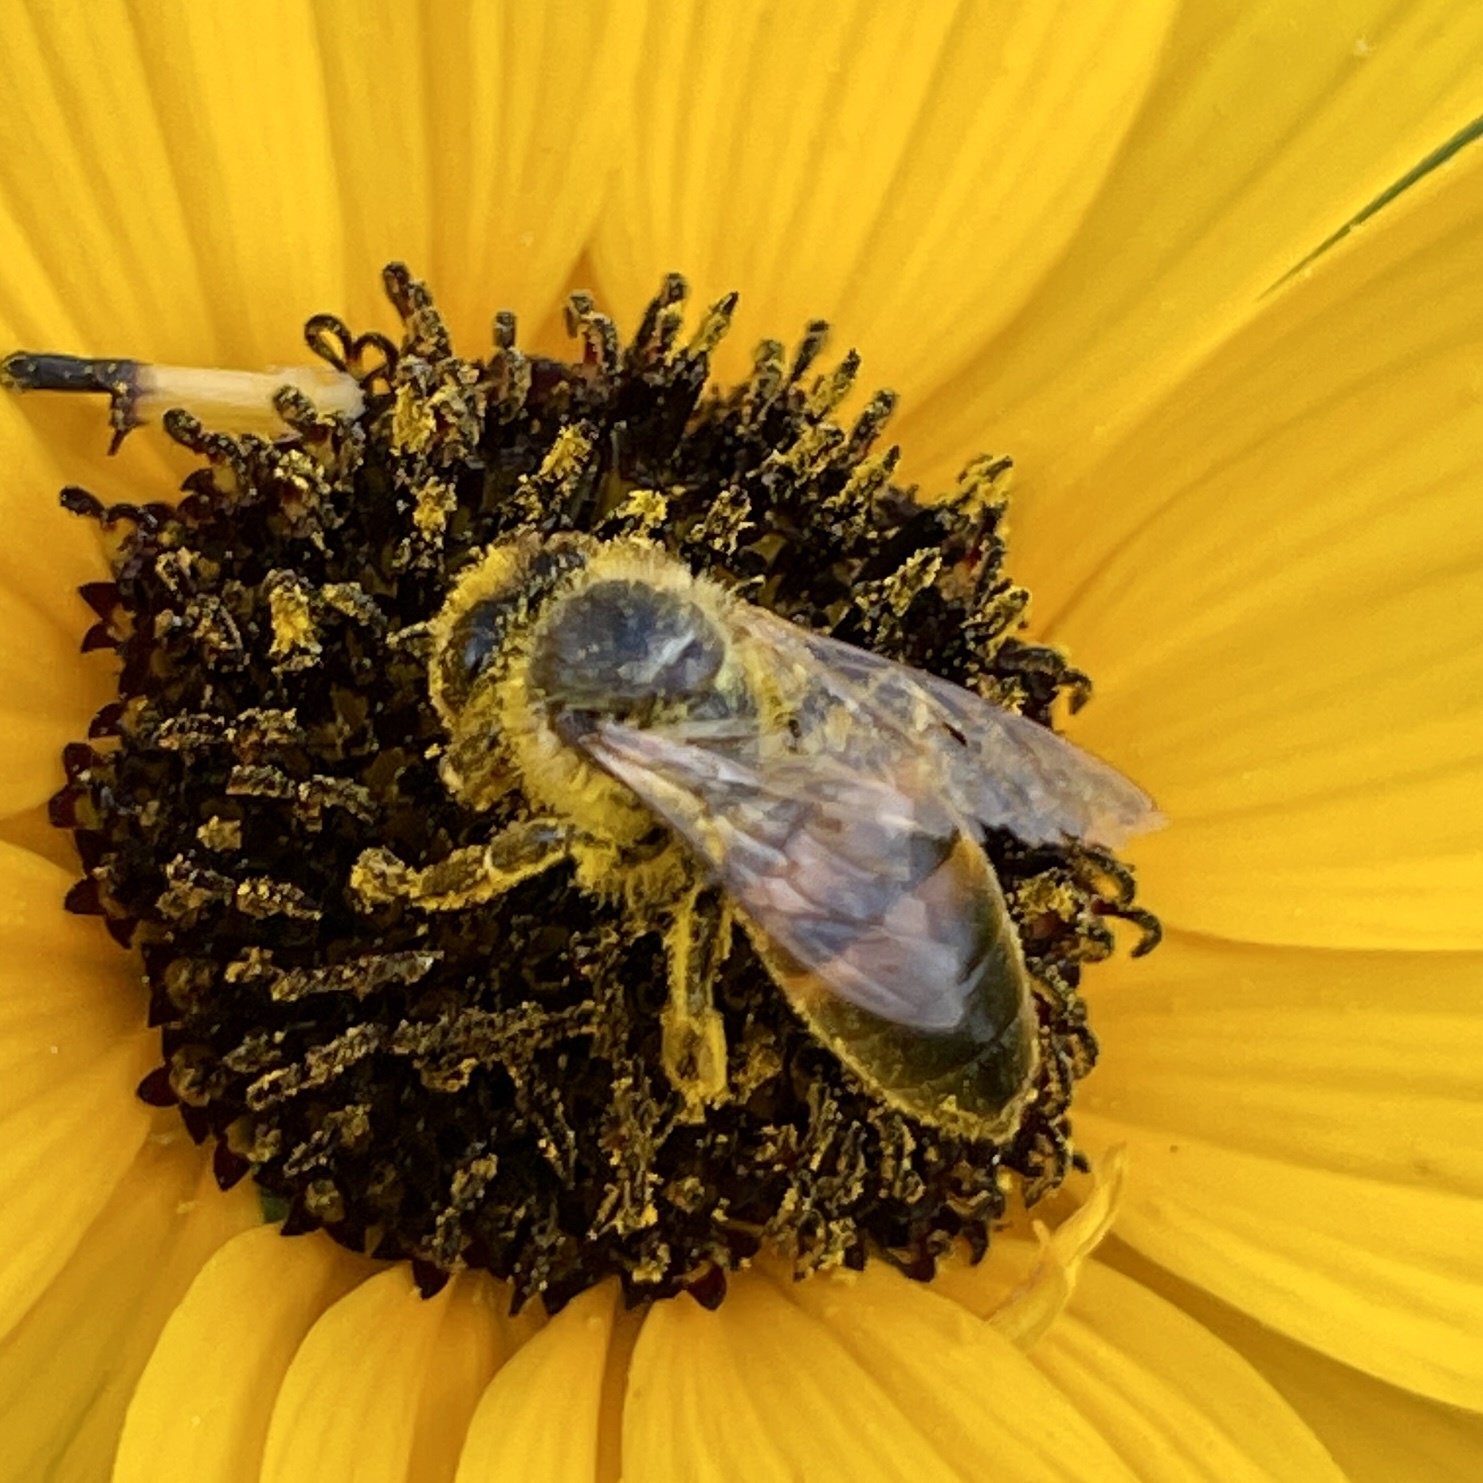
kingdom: Animalia
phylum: Arthropoda
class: Insecta
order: Hymenoptera
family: Apidae
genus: Apis
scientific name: Apis mellifera
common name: Honey bee
